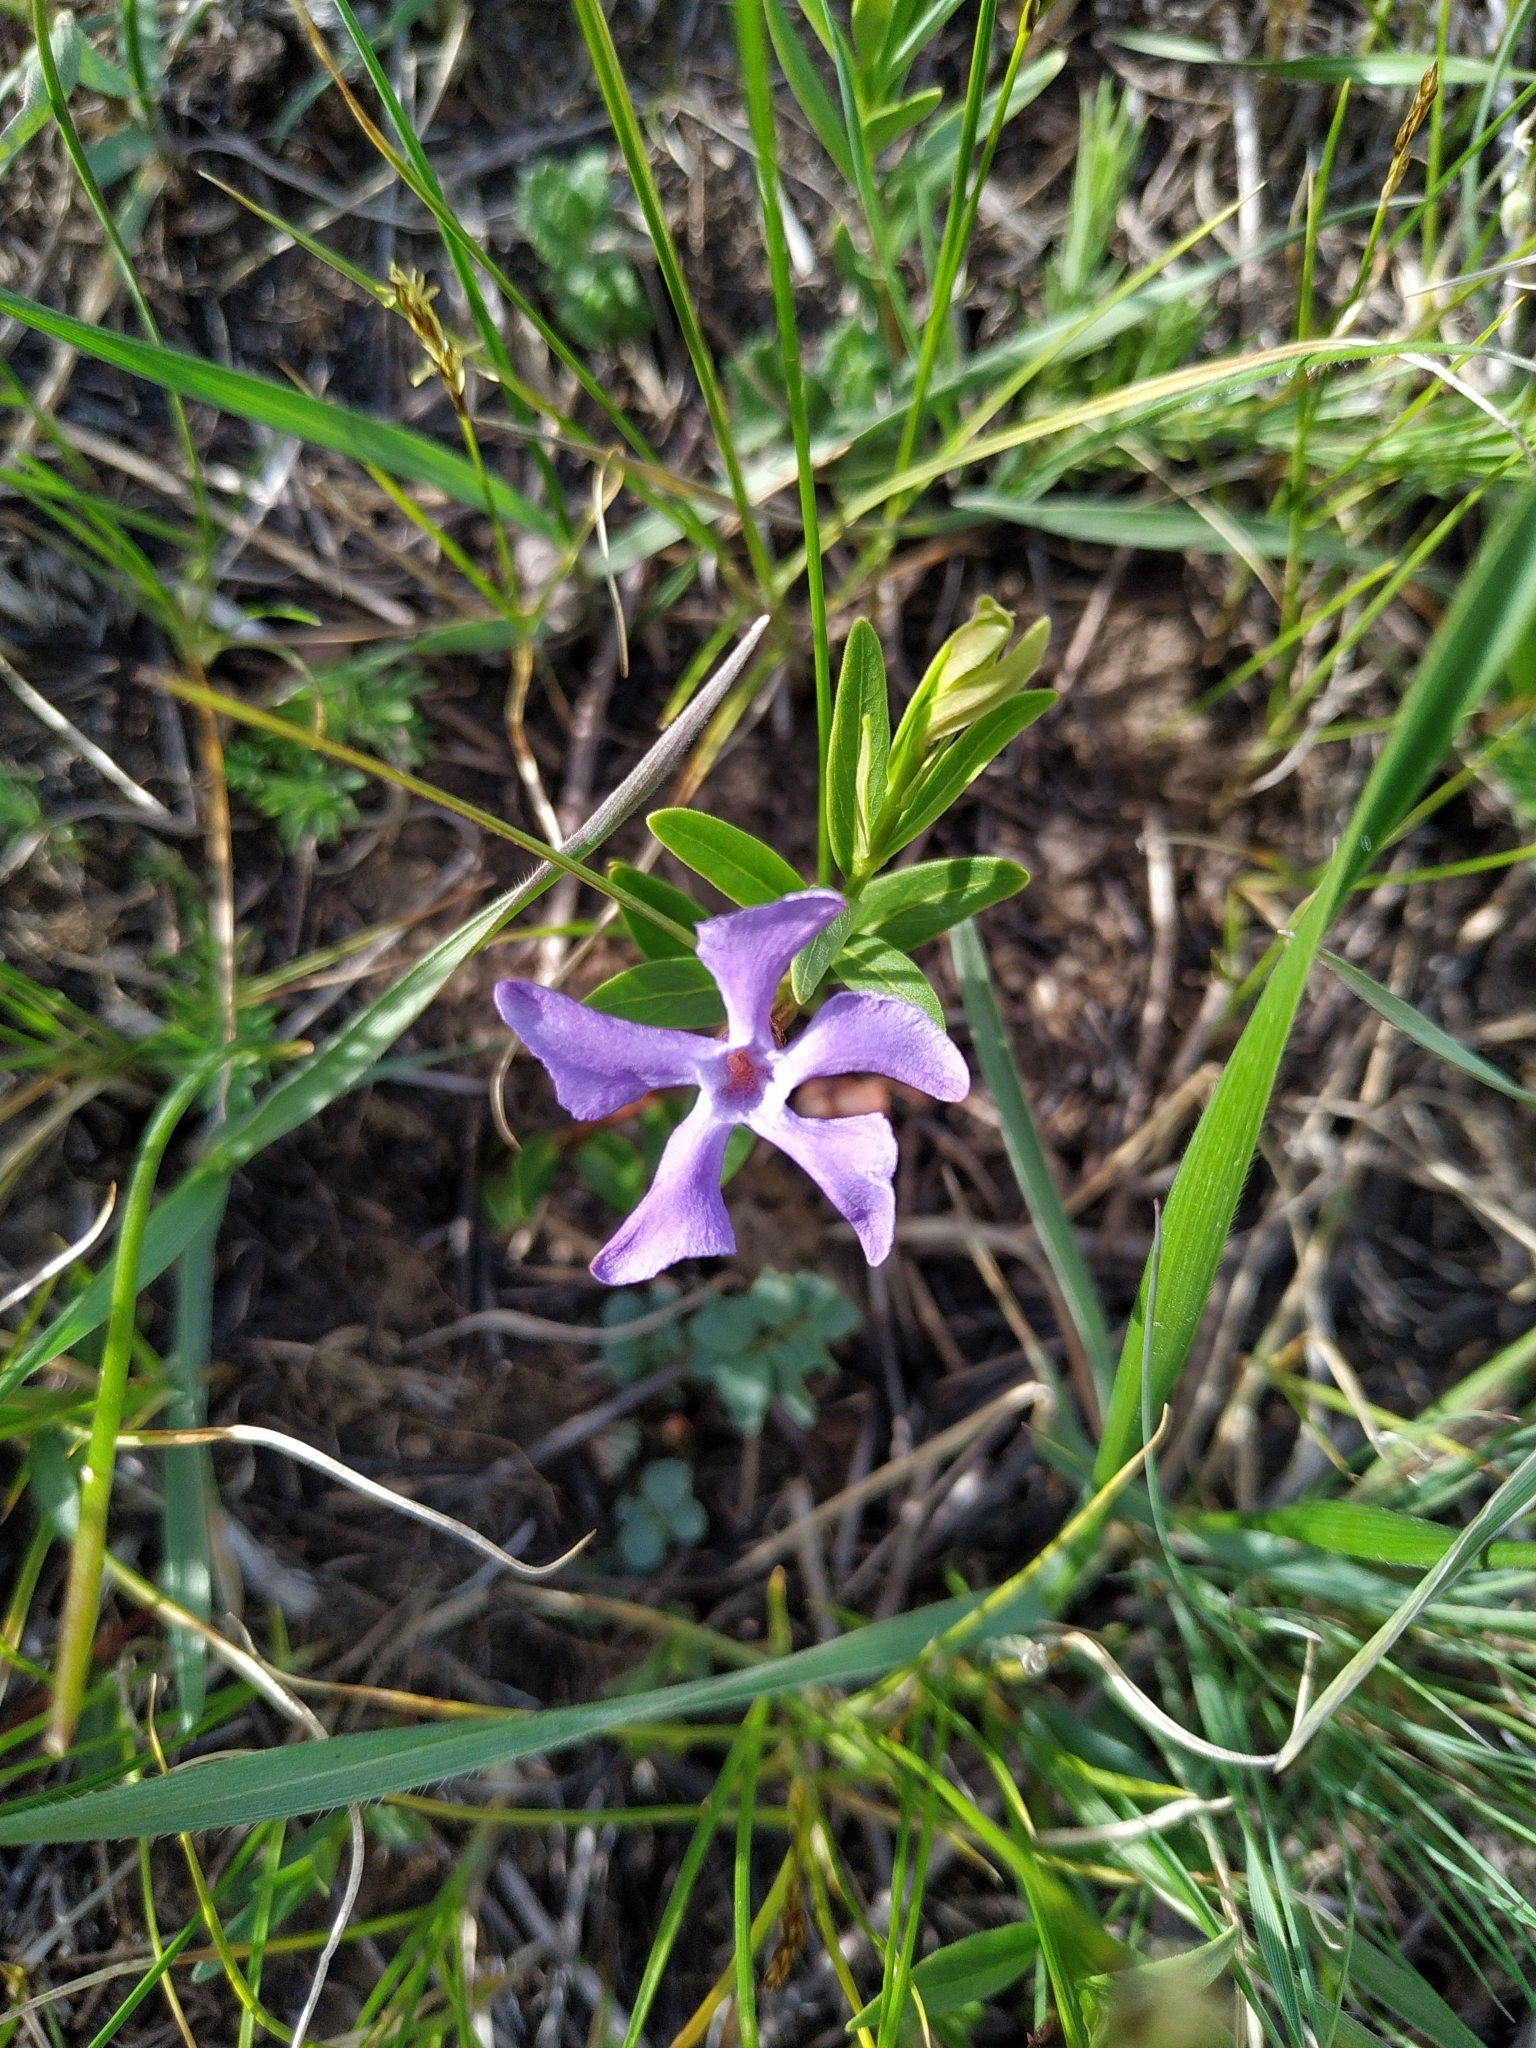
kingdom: Plantae
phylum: Tracheophyta
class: Magnoliopsida
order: Gentianales
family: Apocynaceae
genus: Vinca
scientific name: Vinca herbacea
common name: Herbaceous periwinkle
